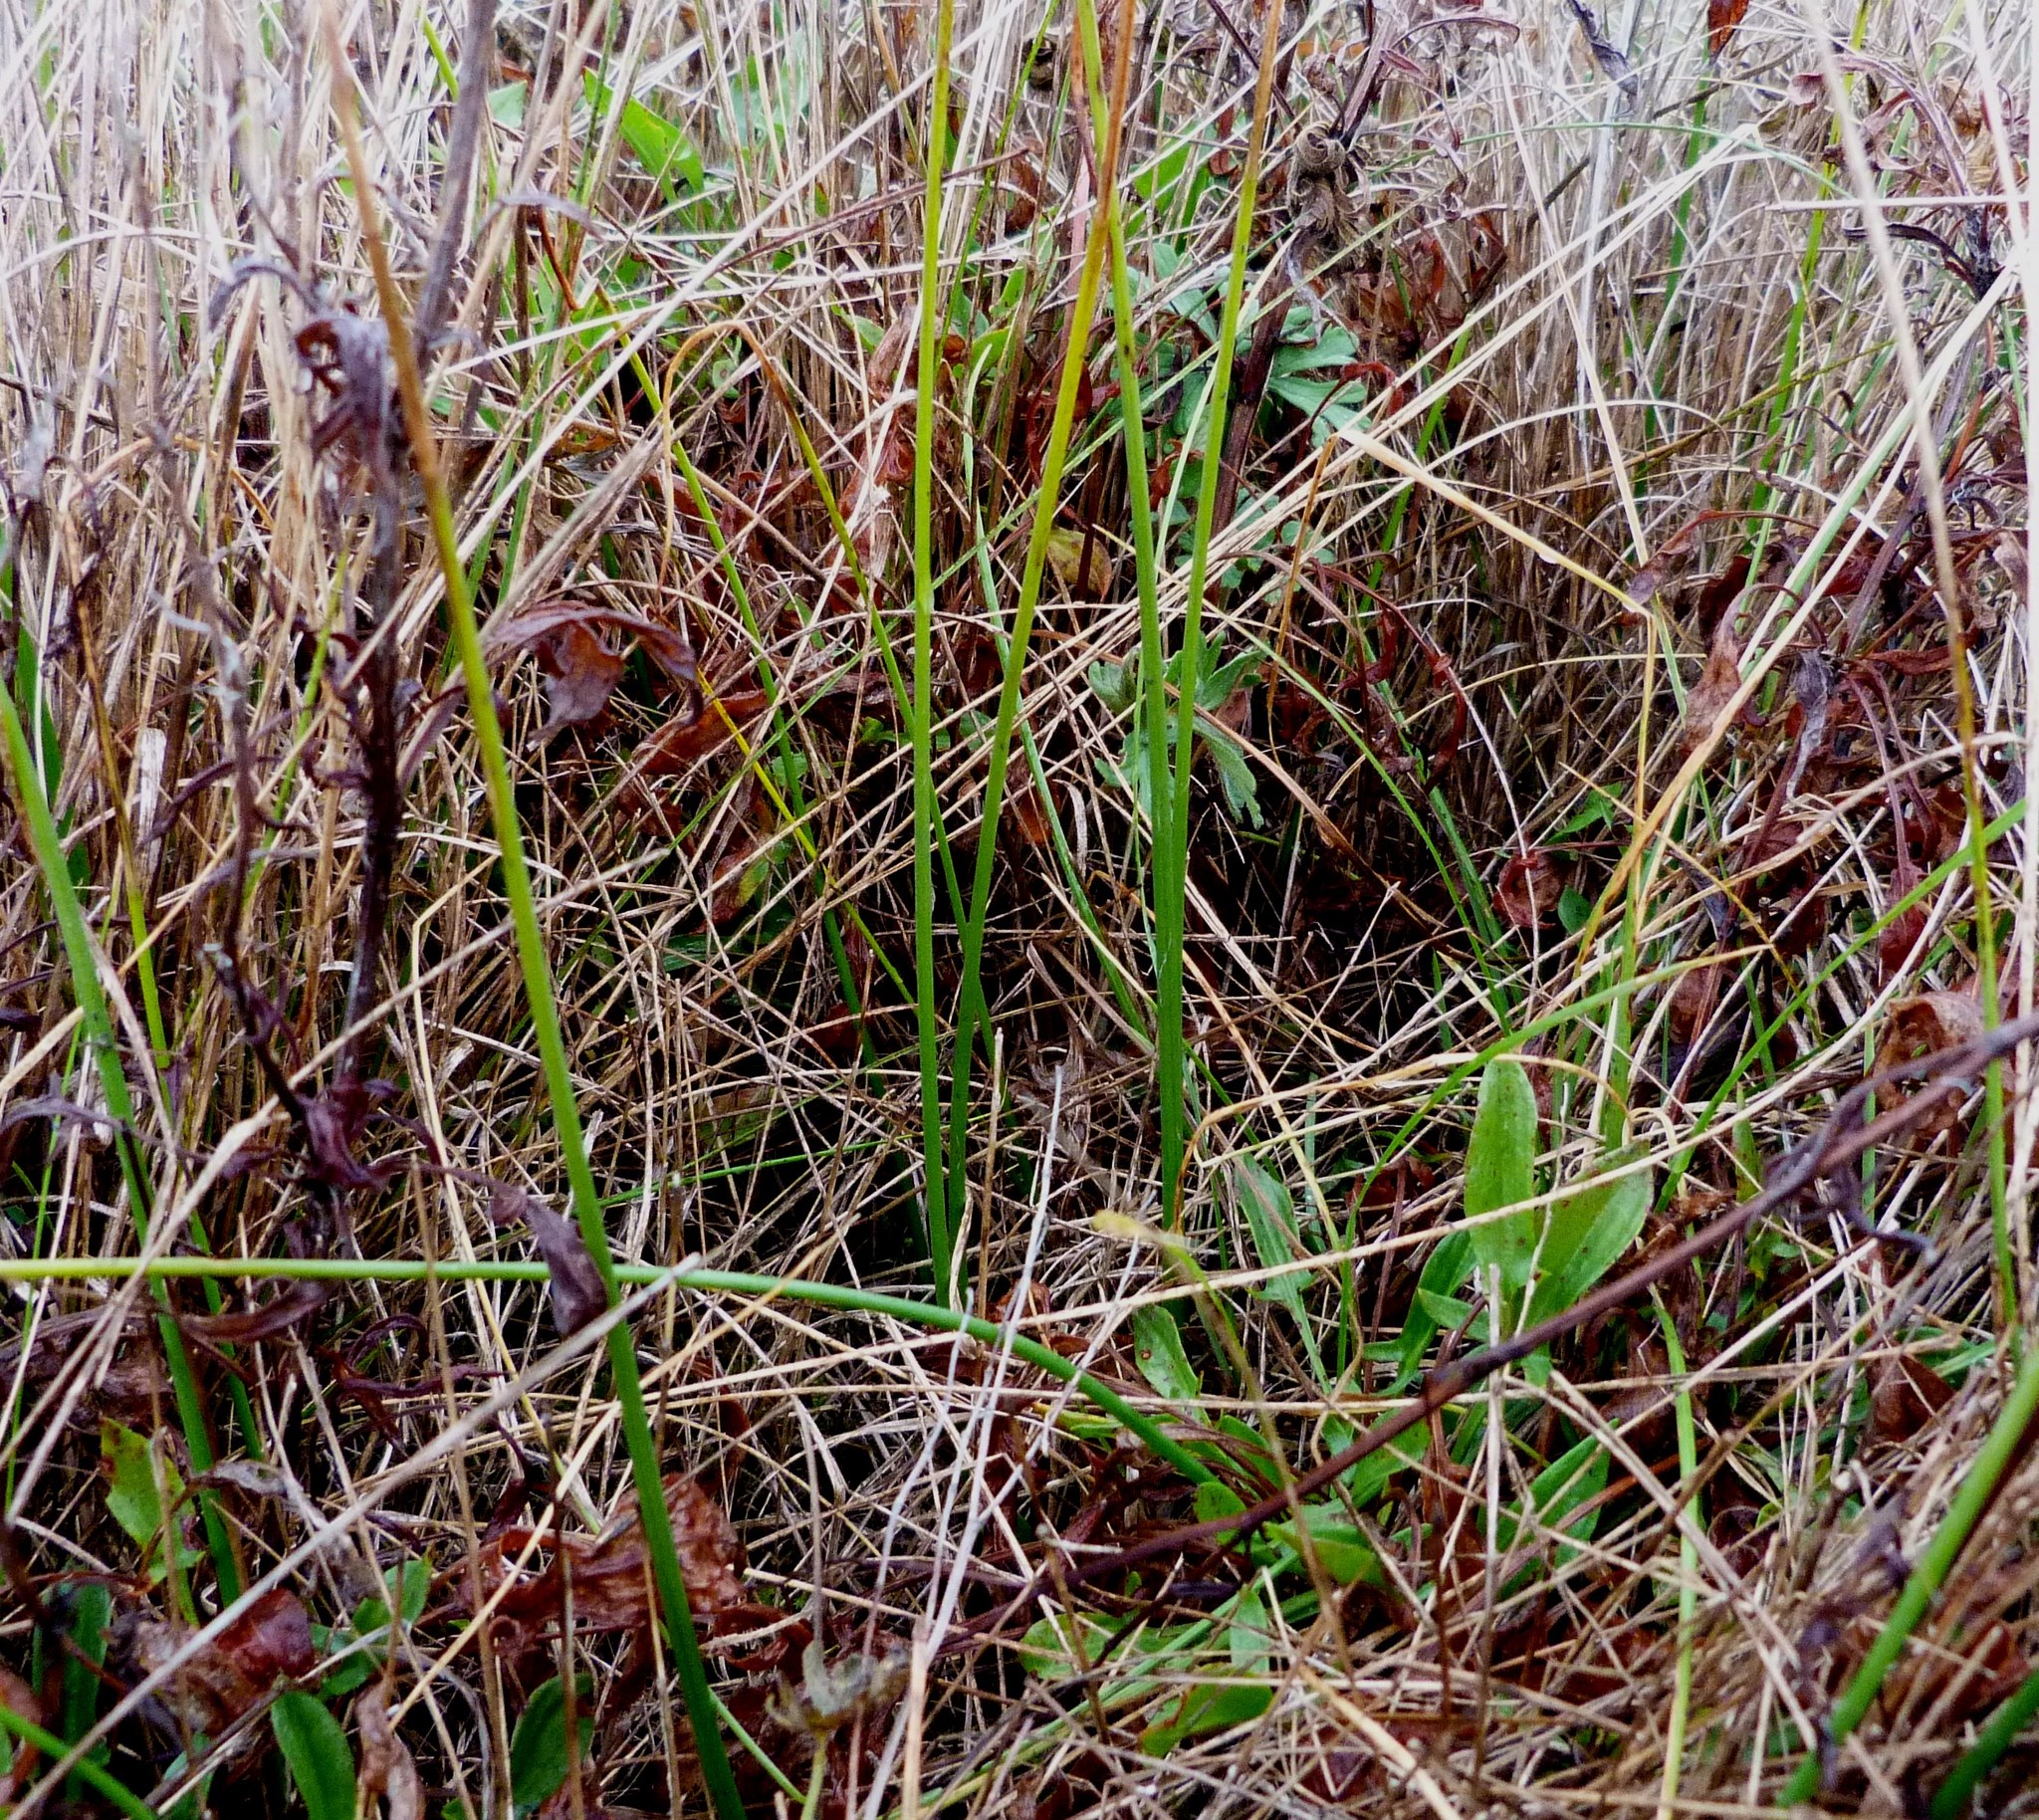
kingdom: Plantae
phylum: Tracheophyta
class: Liliopsida
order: Asparagales
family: Orchidaceae
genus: Microtis
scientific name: Microtis unifolia
